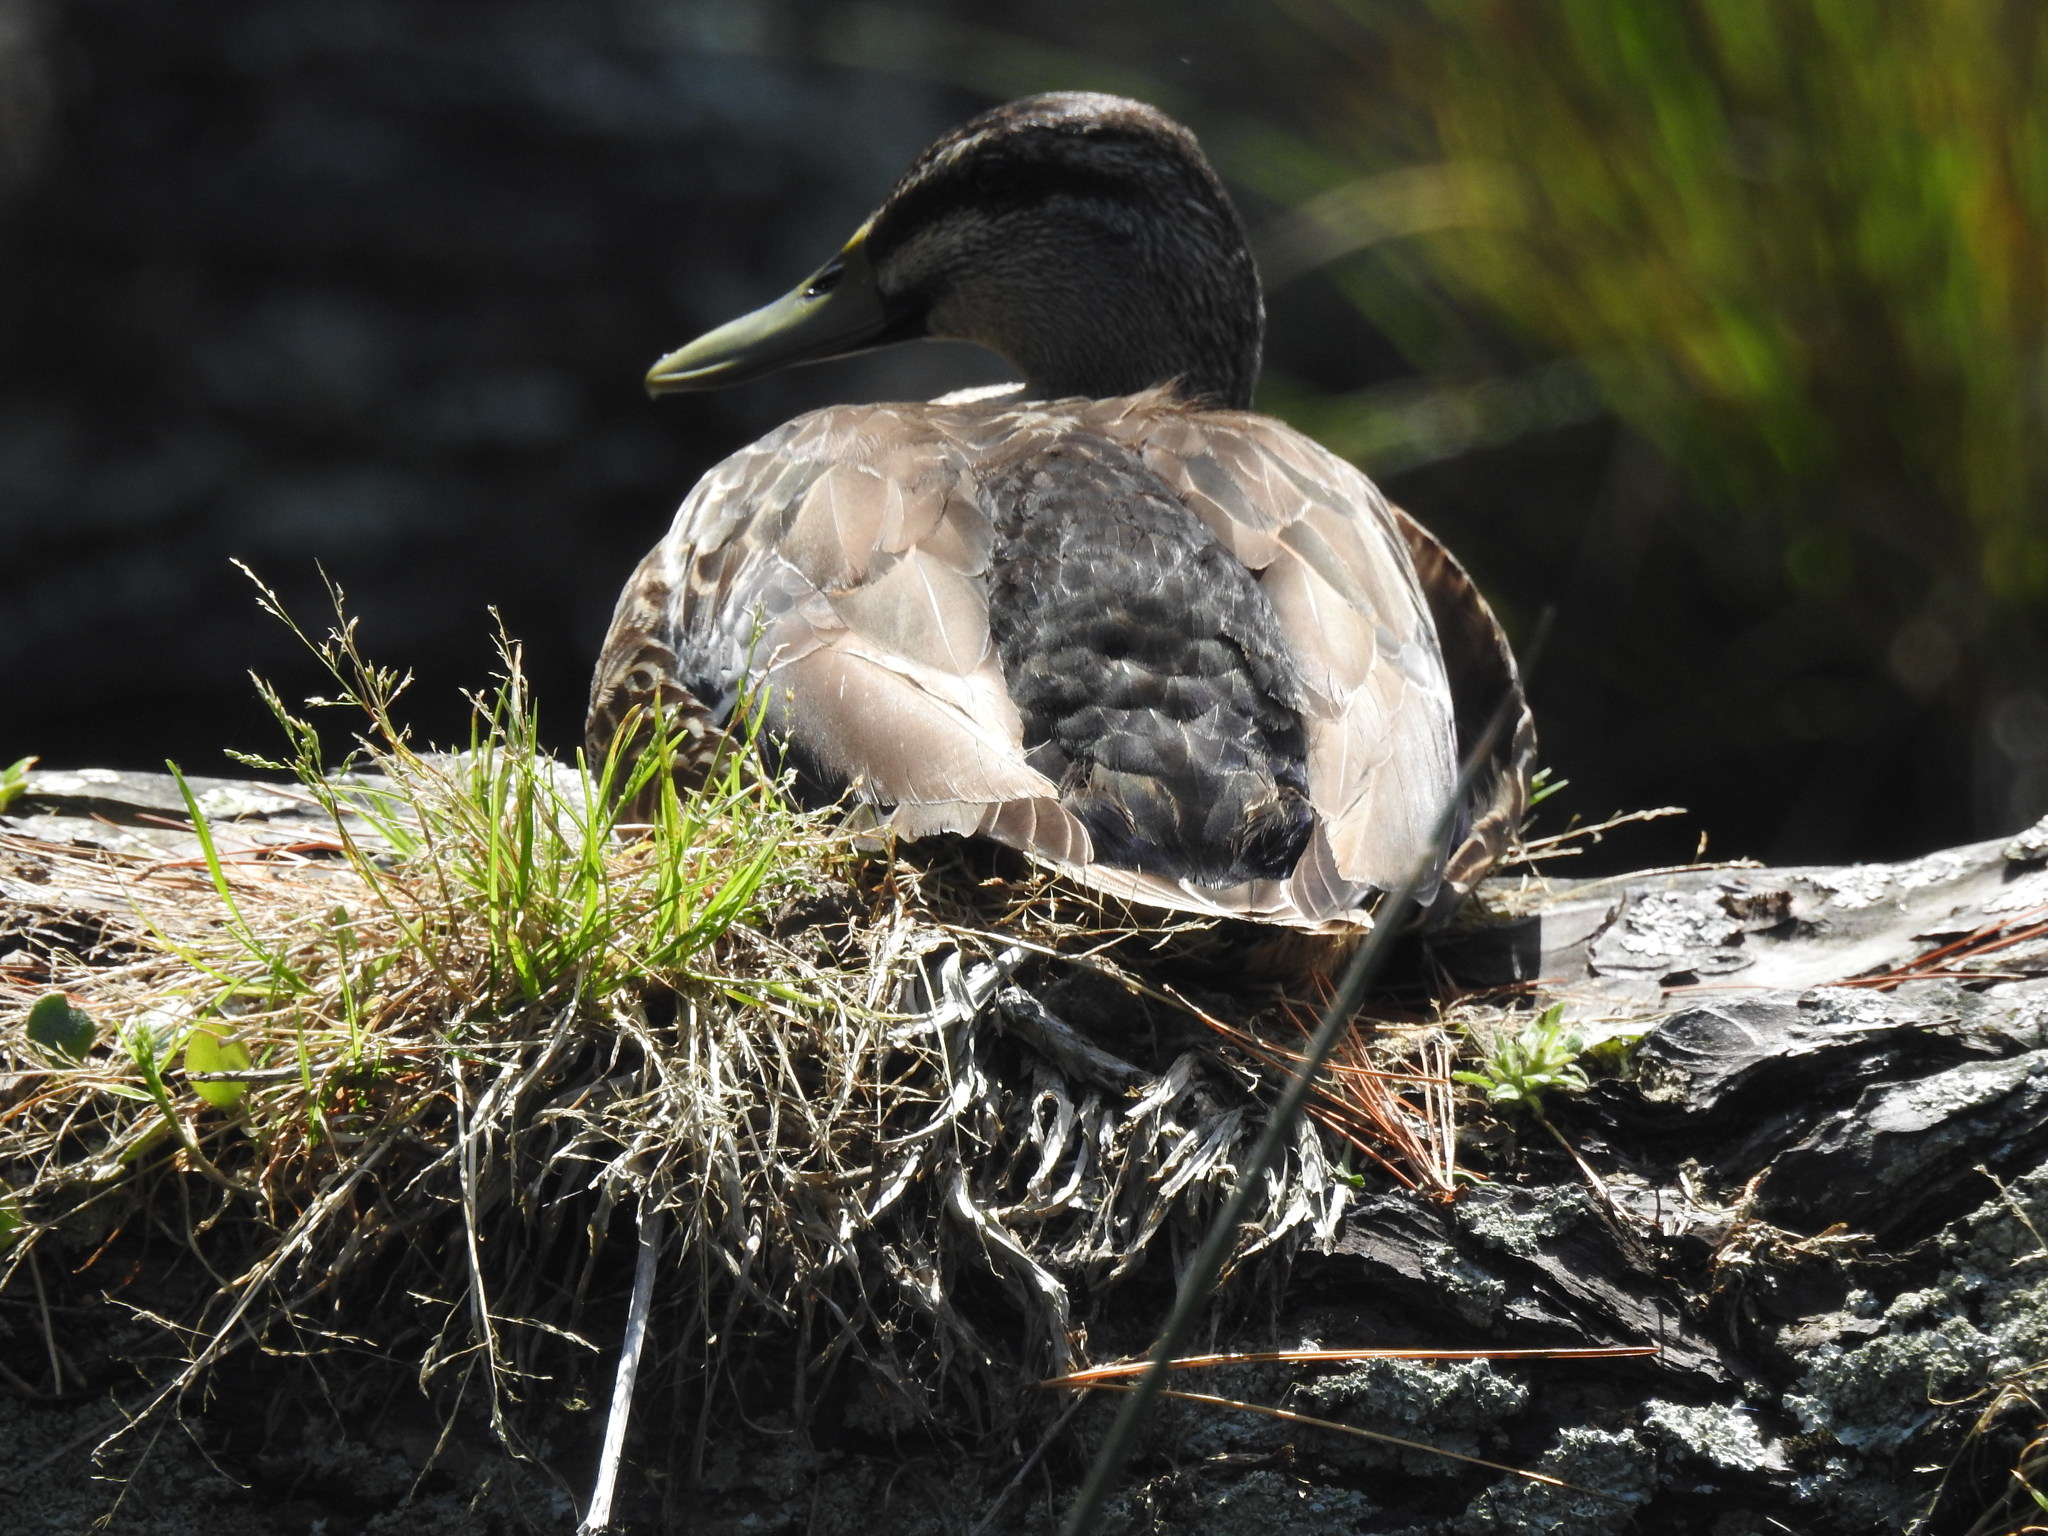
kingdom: Animalia
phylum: Chordata
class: Aves
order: Anseriformes
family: Anatidae
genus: Anas
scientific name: Anas
